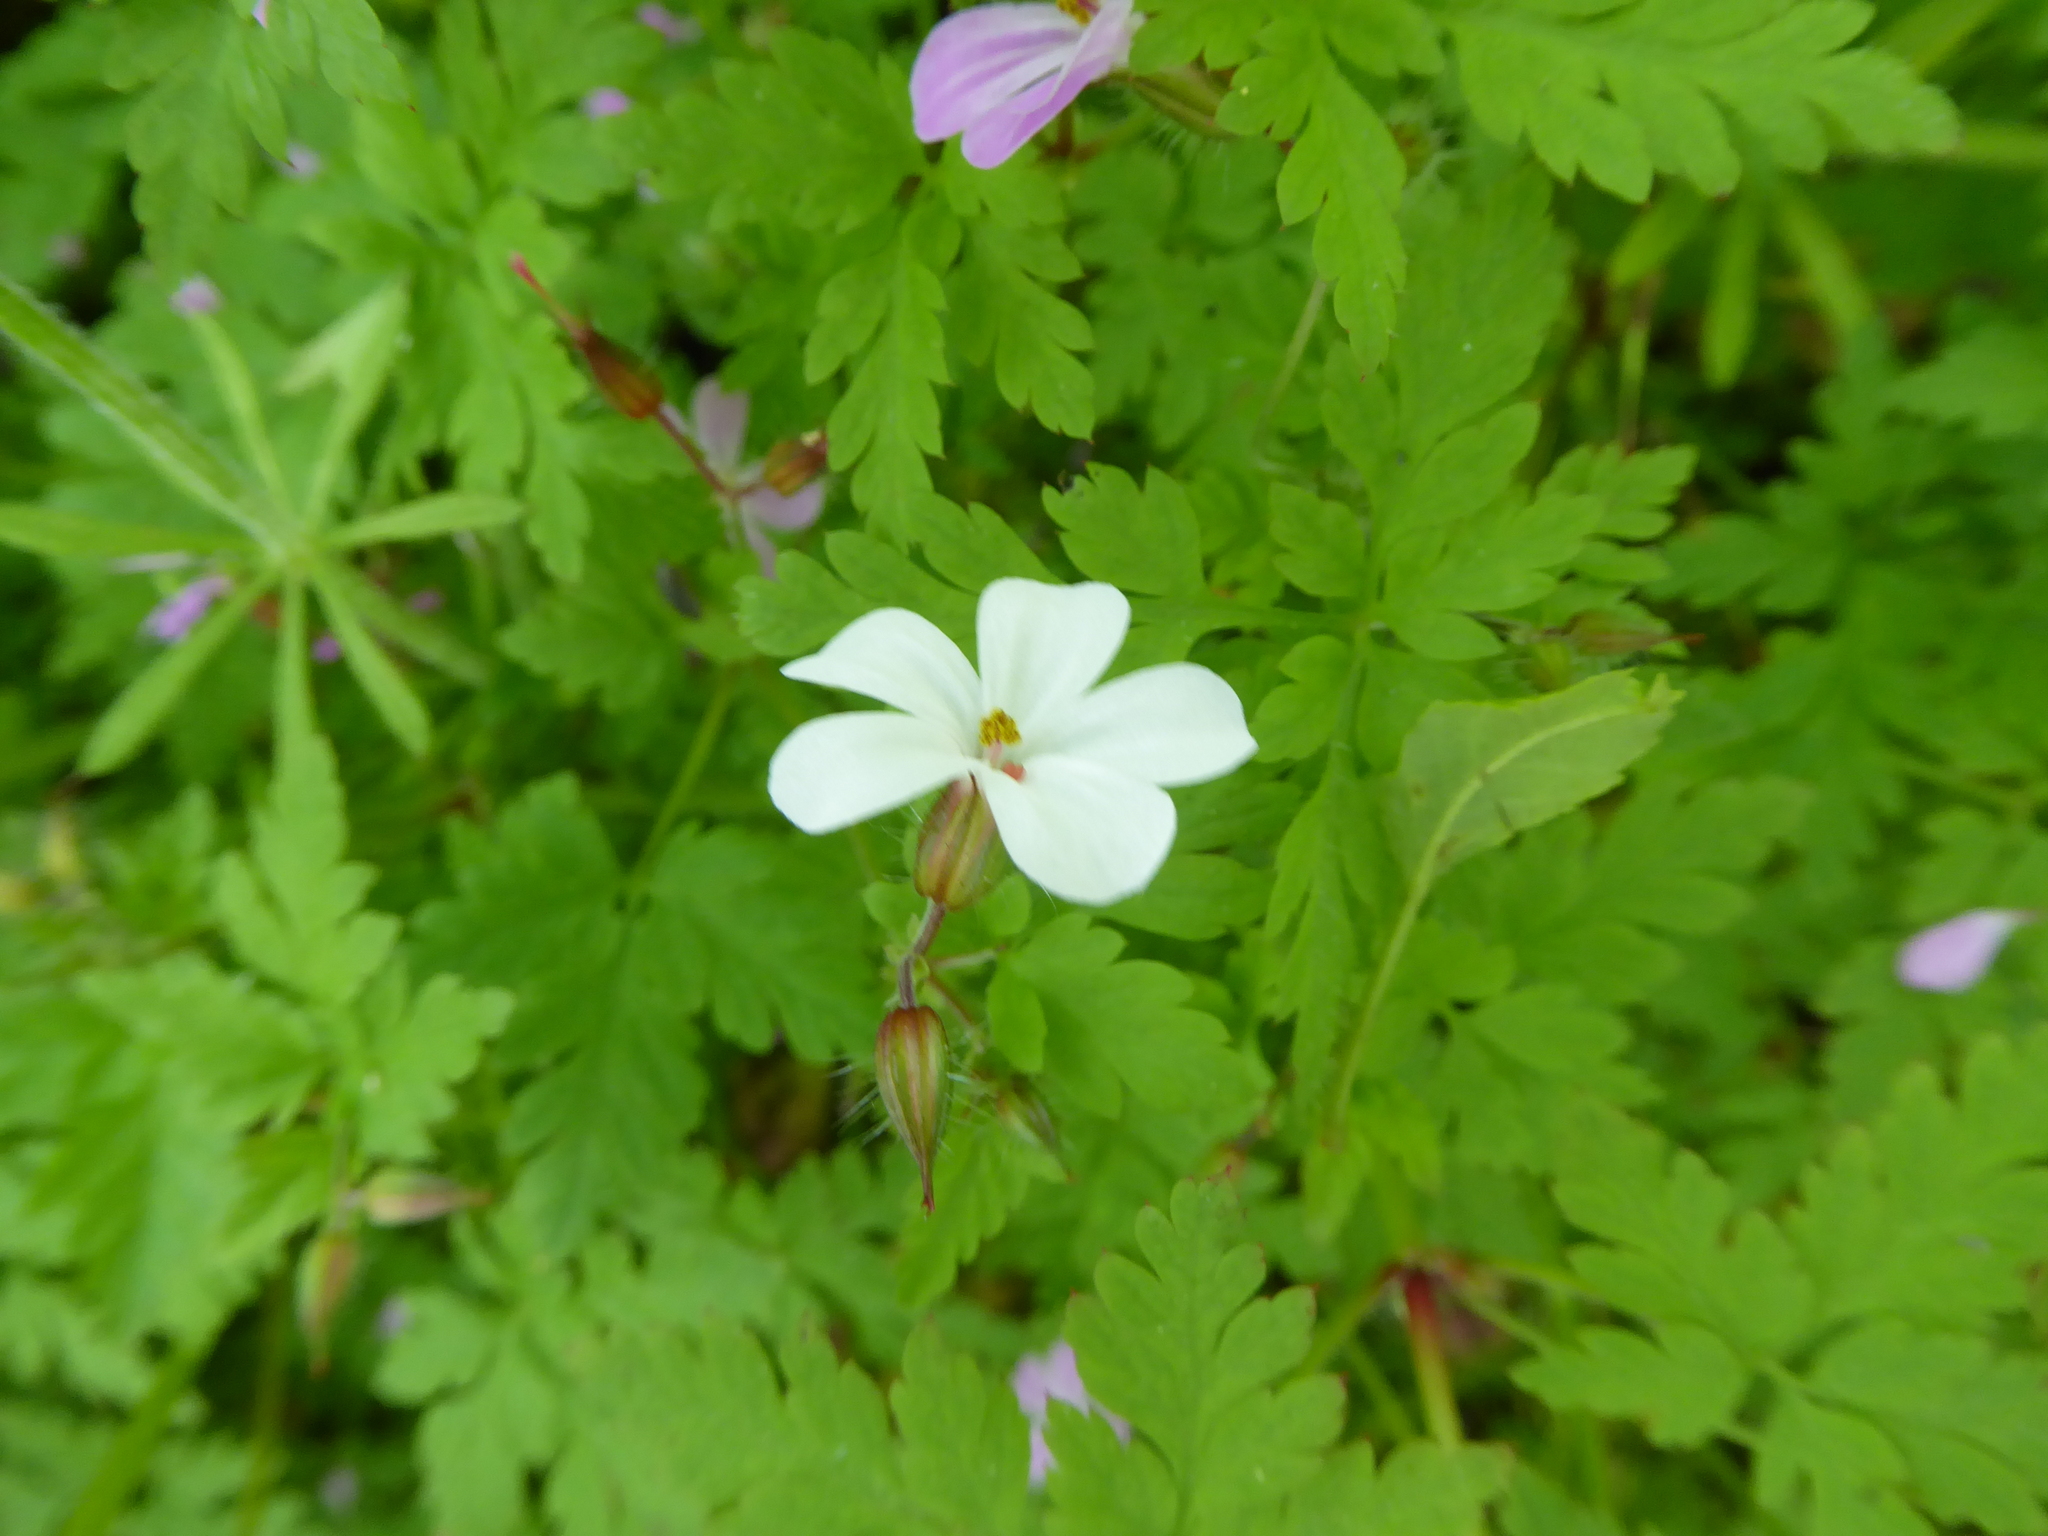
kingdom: Plantae
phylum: Tracheophyta
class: Magnoliopsida
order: Geraniales
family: Geraniaceae
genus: Geranium
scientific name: Geranium robertianum
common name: Herb-robert
